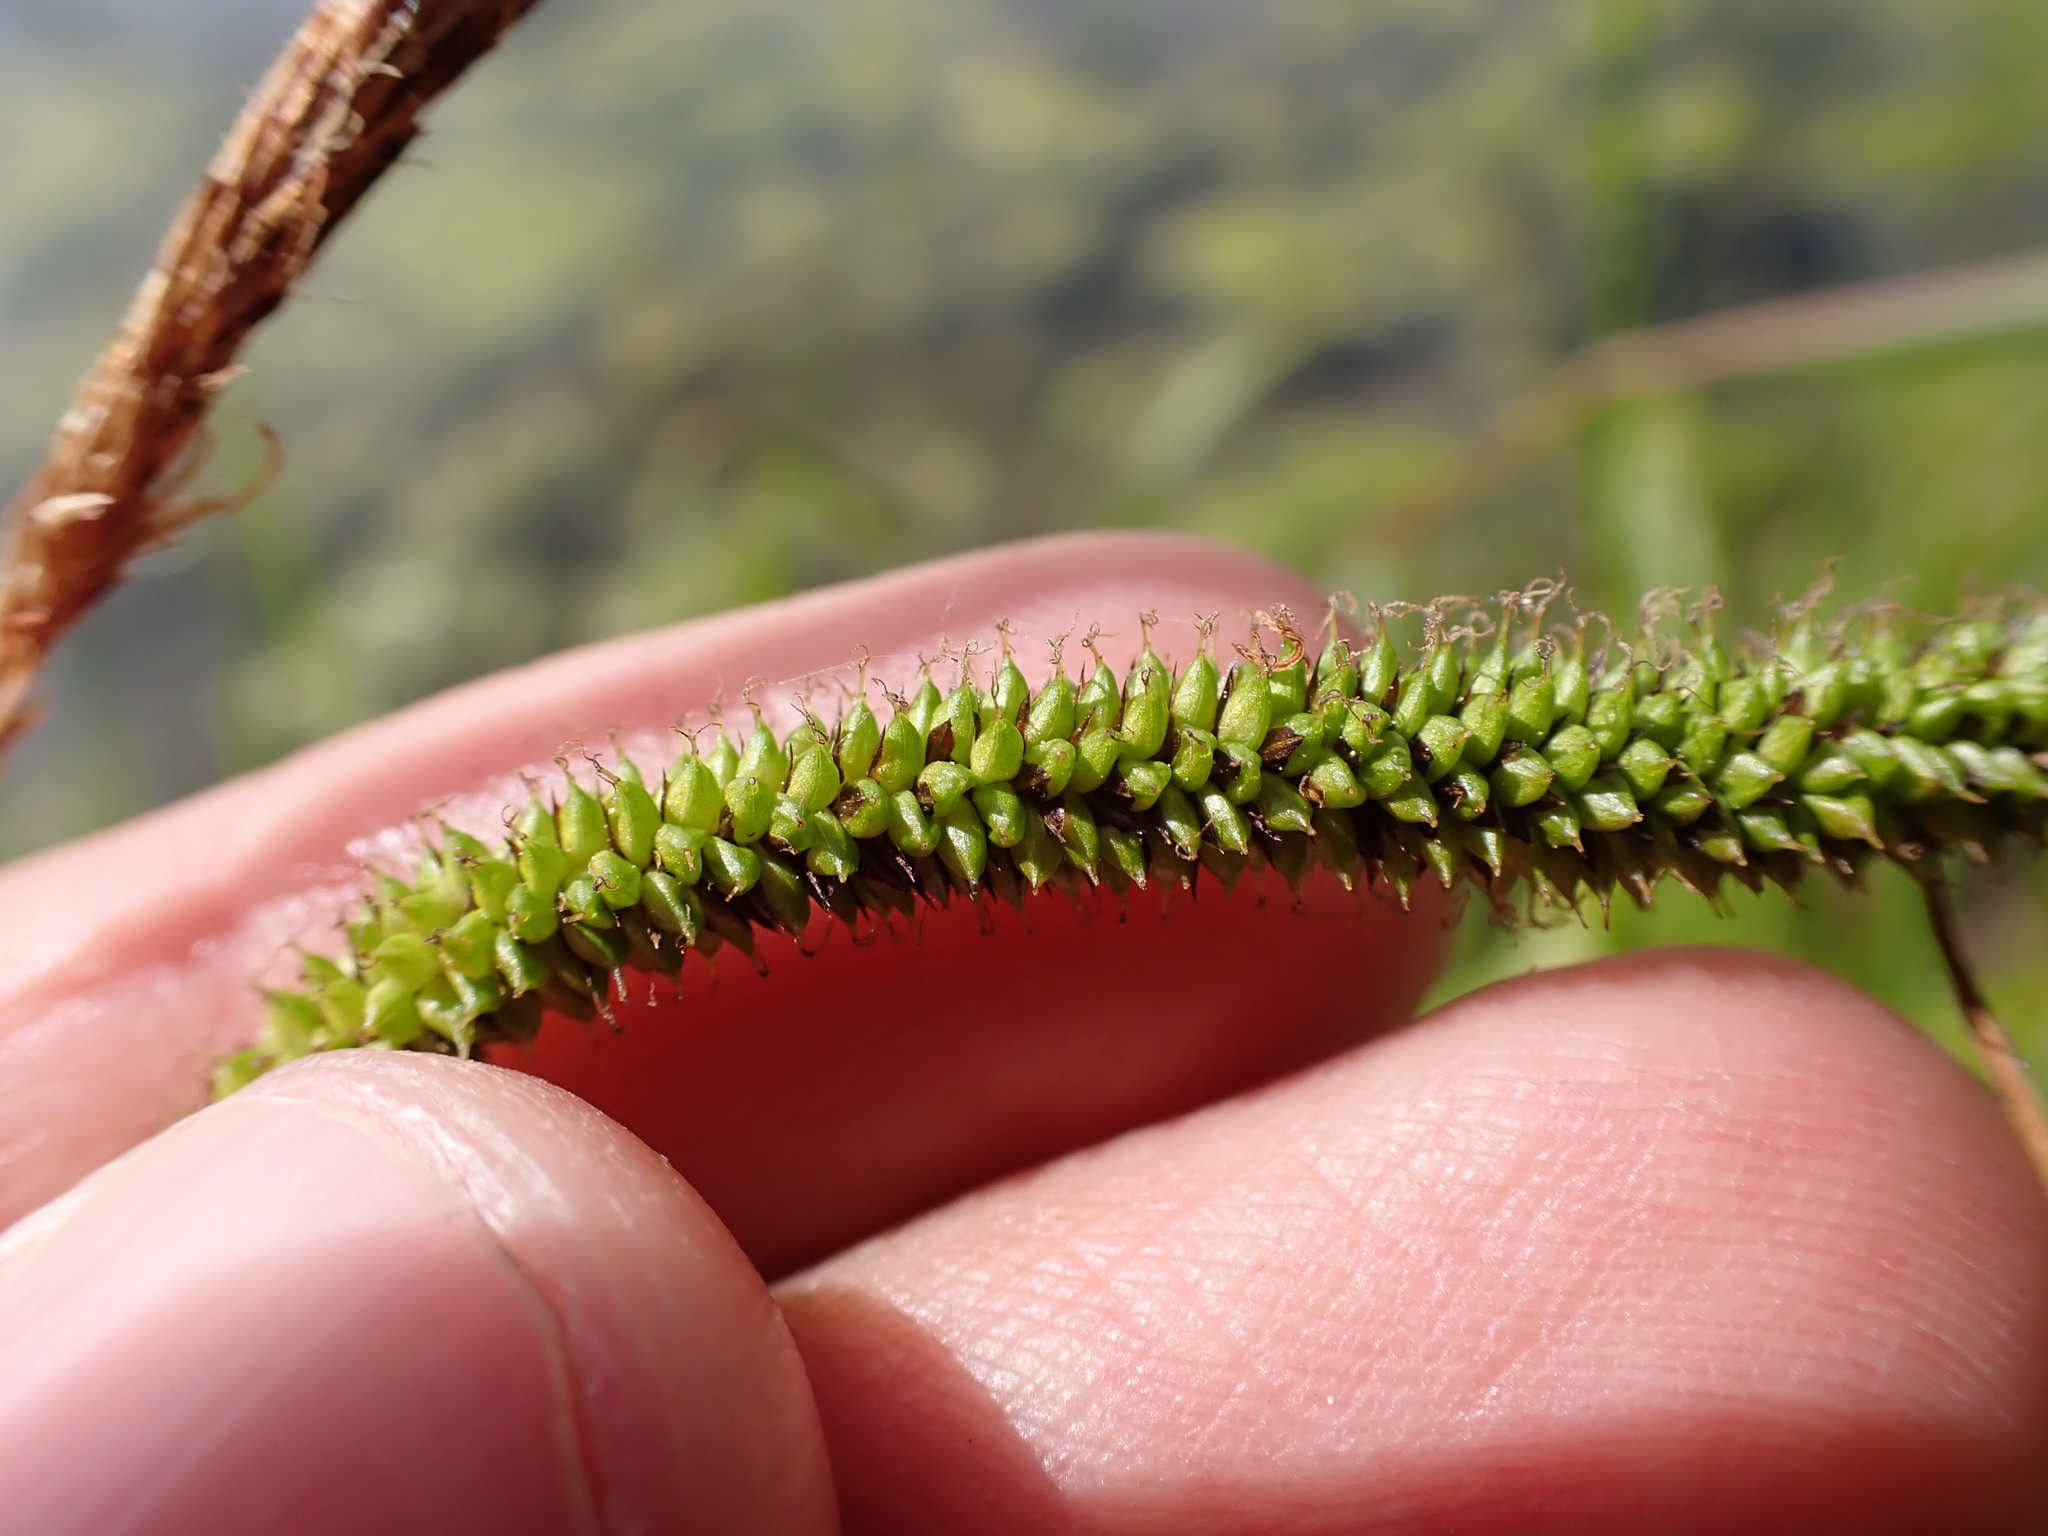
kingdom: Plantae
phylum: Tracheophyta
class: Liliopsida
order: Poales
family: Cyperaceae
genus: Carex
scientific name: Carex pendula
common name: Pendulous sedge
